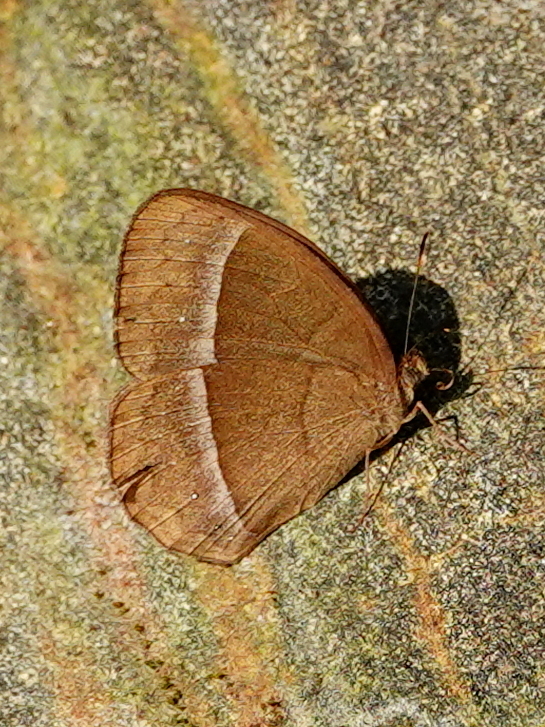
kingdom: Animalia
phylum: Arthropoda
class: Insecta
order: Lepidoptera
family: Nymphalidae
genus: Mycalesis
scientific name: Mycalesis francisca
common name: Lilacine bushbrown
